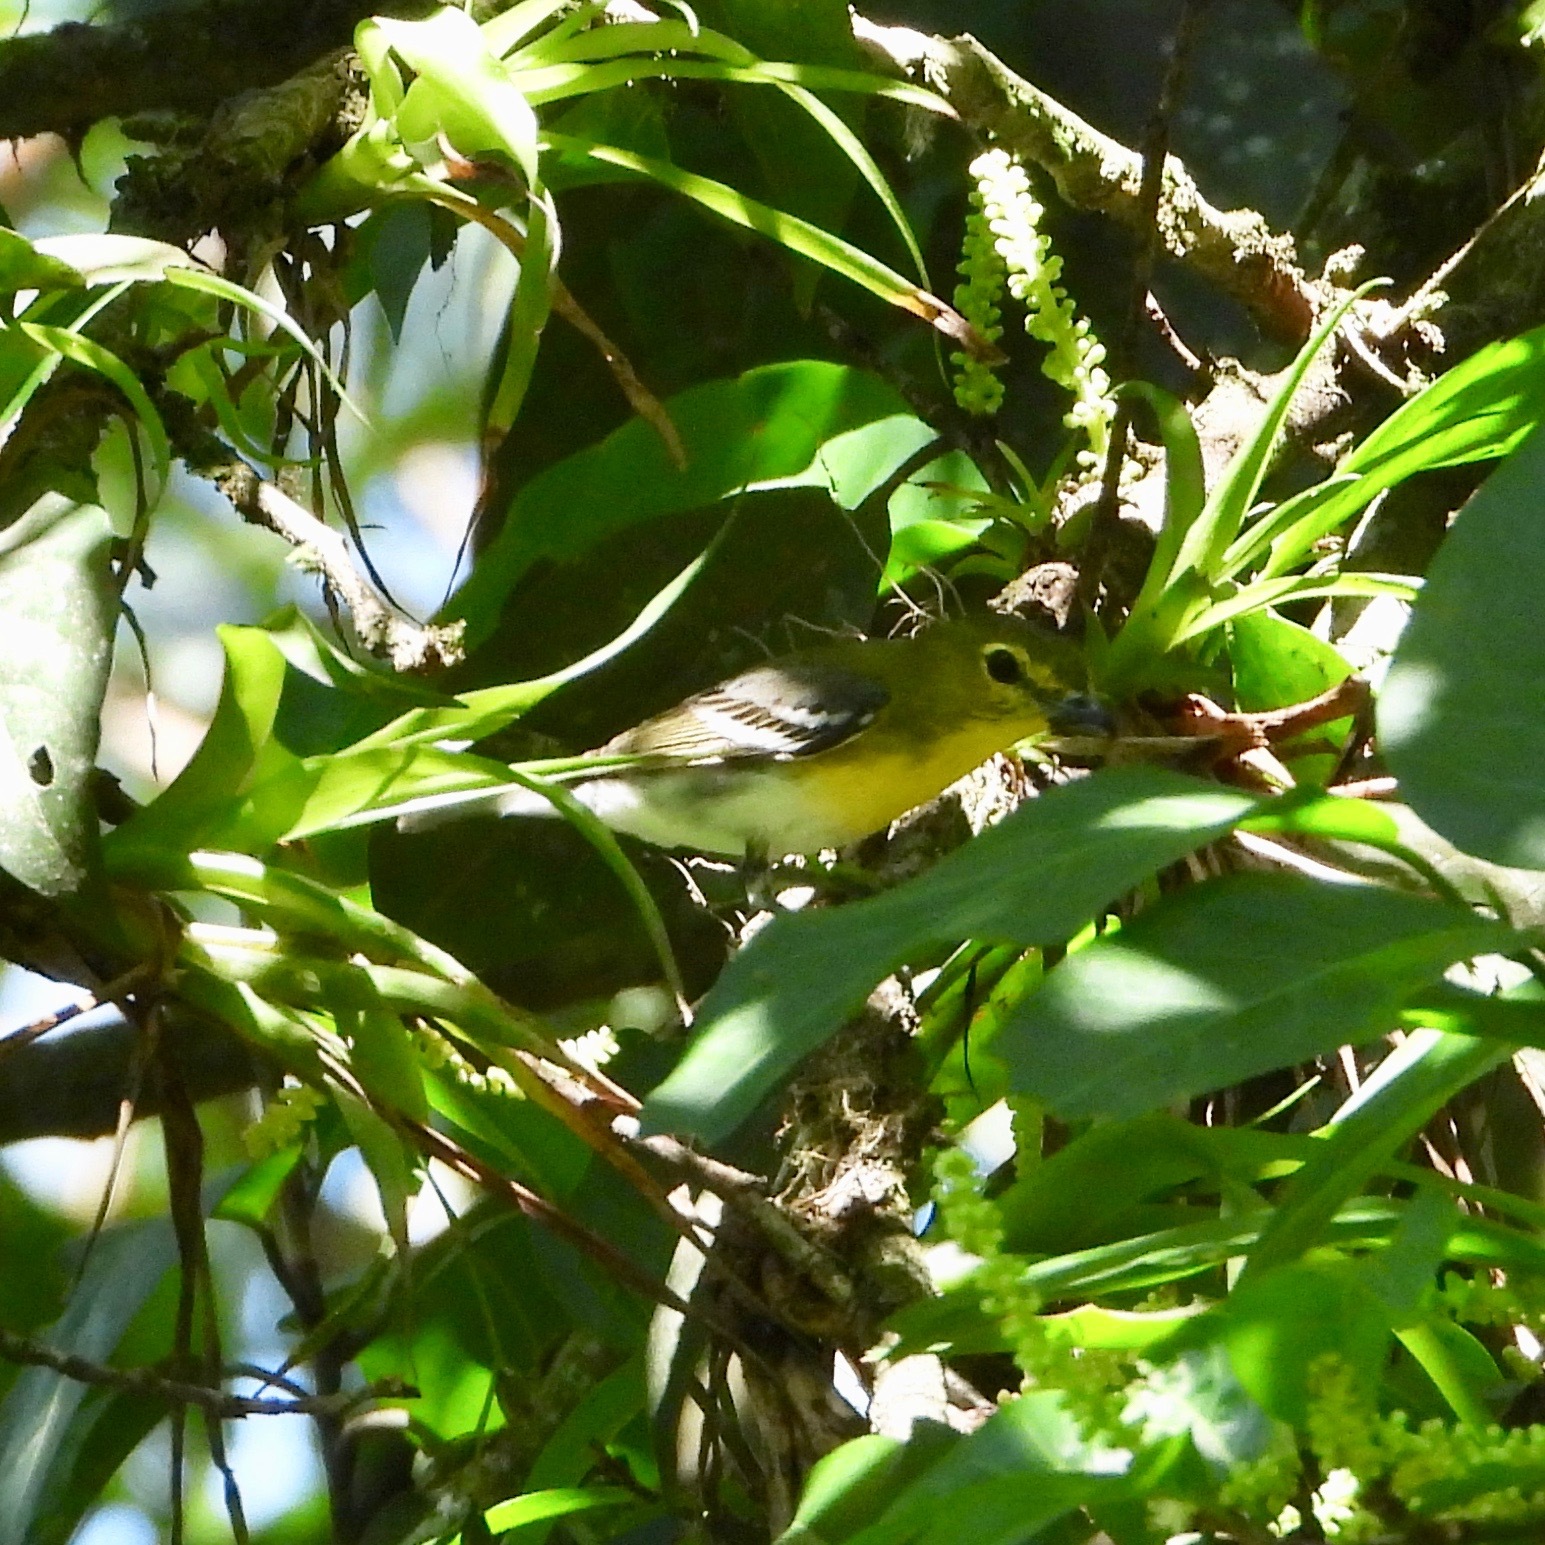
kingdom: Animalia
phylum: Chordata
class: Aves
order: Passeriformes
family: Vireonidae
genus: Vireo
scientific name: Vireo flavifrons
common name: Yellow-throated vireo
